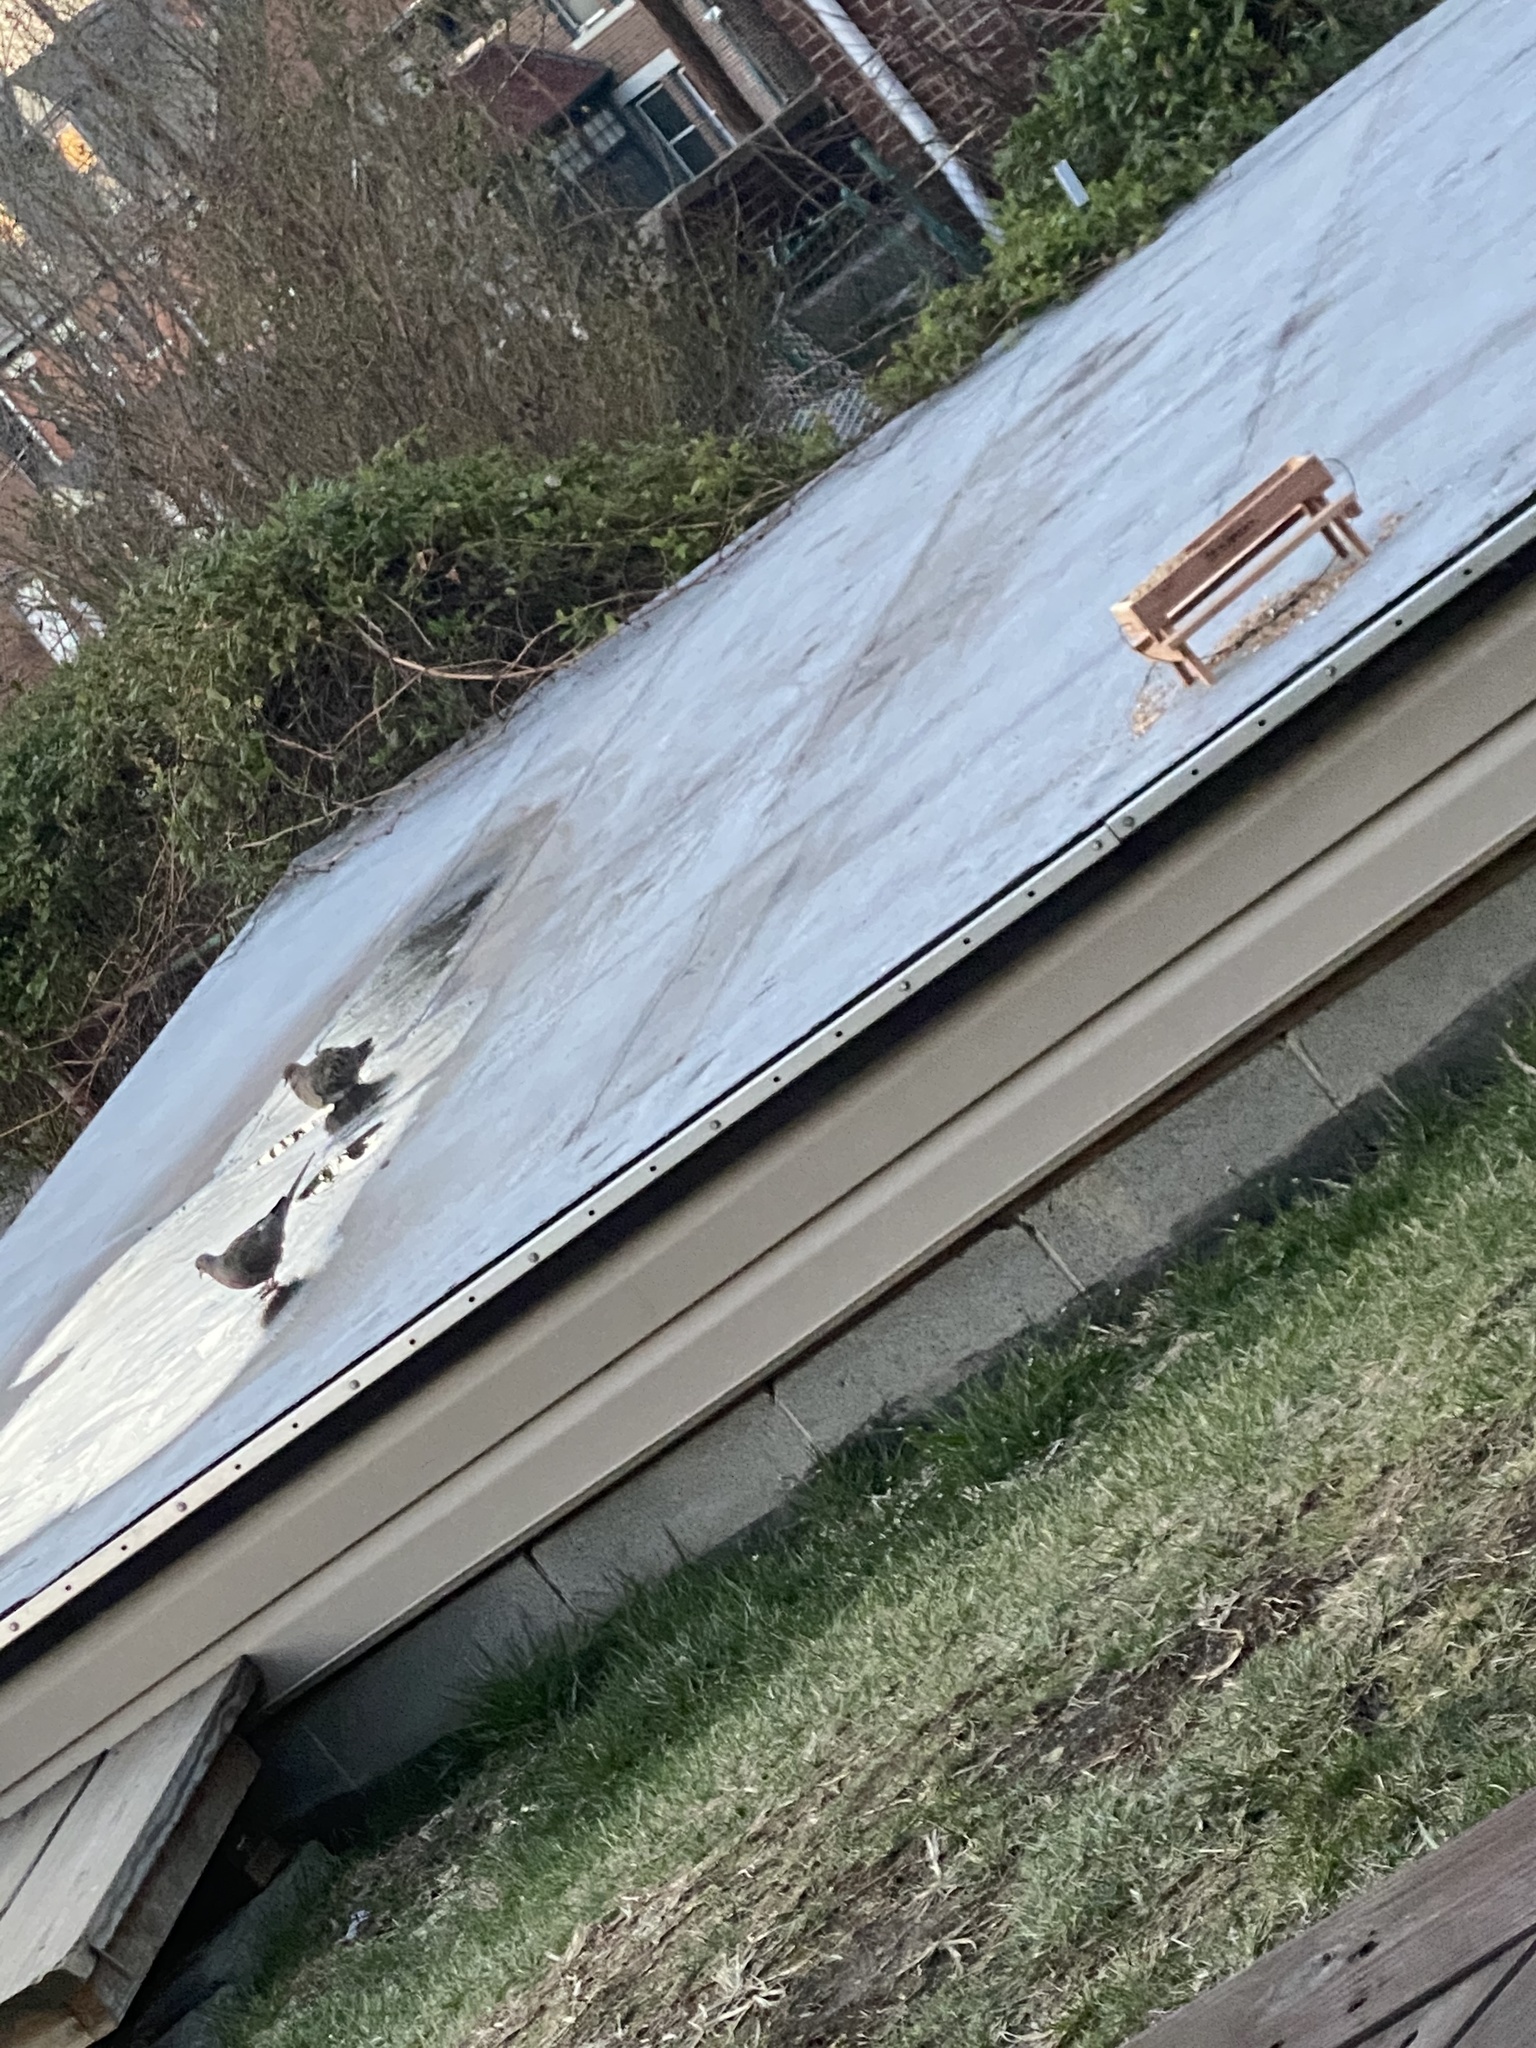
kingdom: Animalia
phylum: Chordata
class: Aves
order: Columbiformes
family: Columbidae
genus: Zenaida
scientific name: Zenaida macroura
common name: Mourning dove
